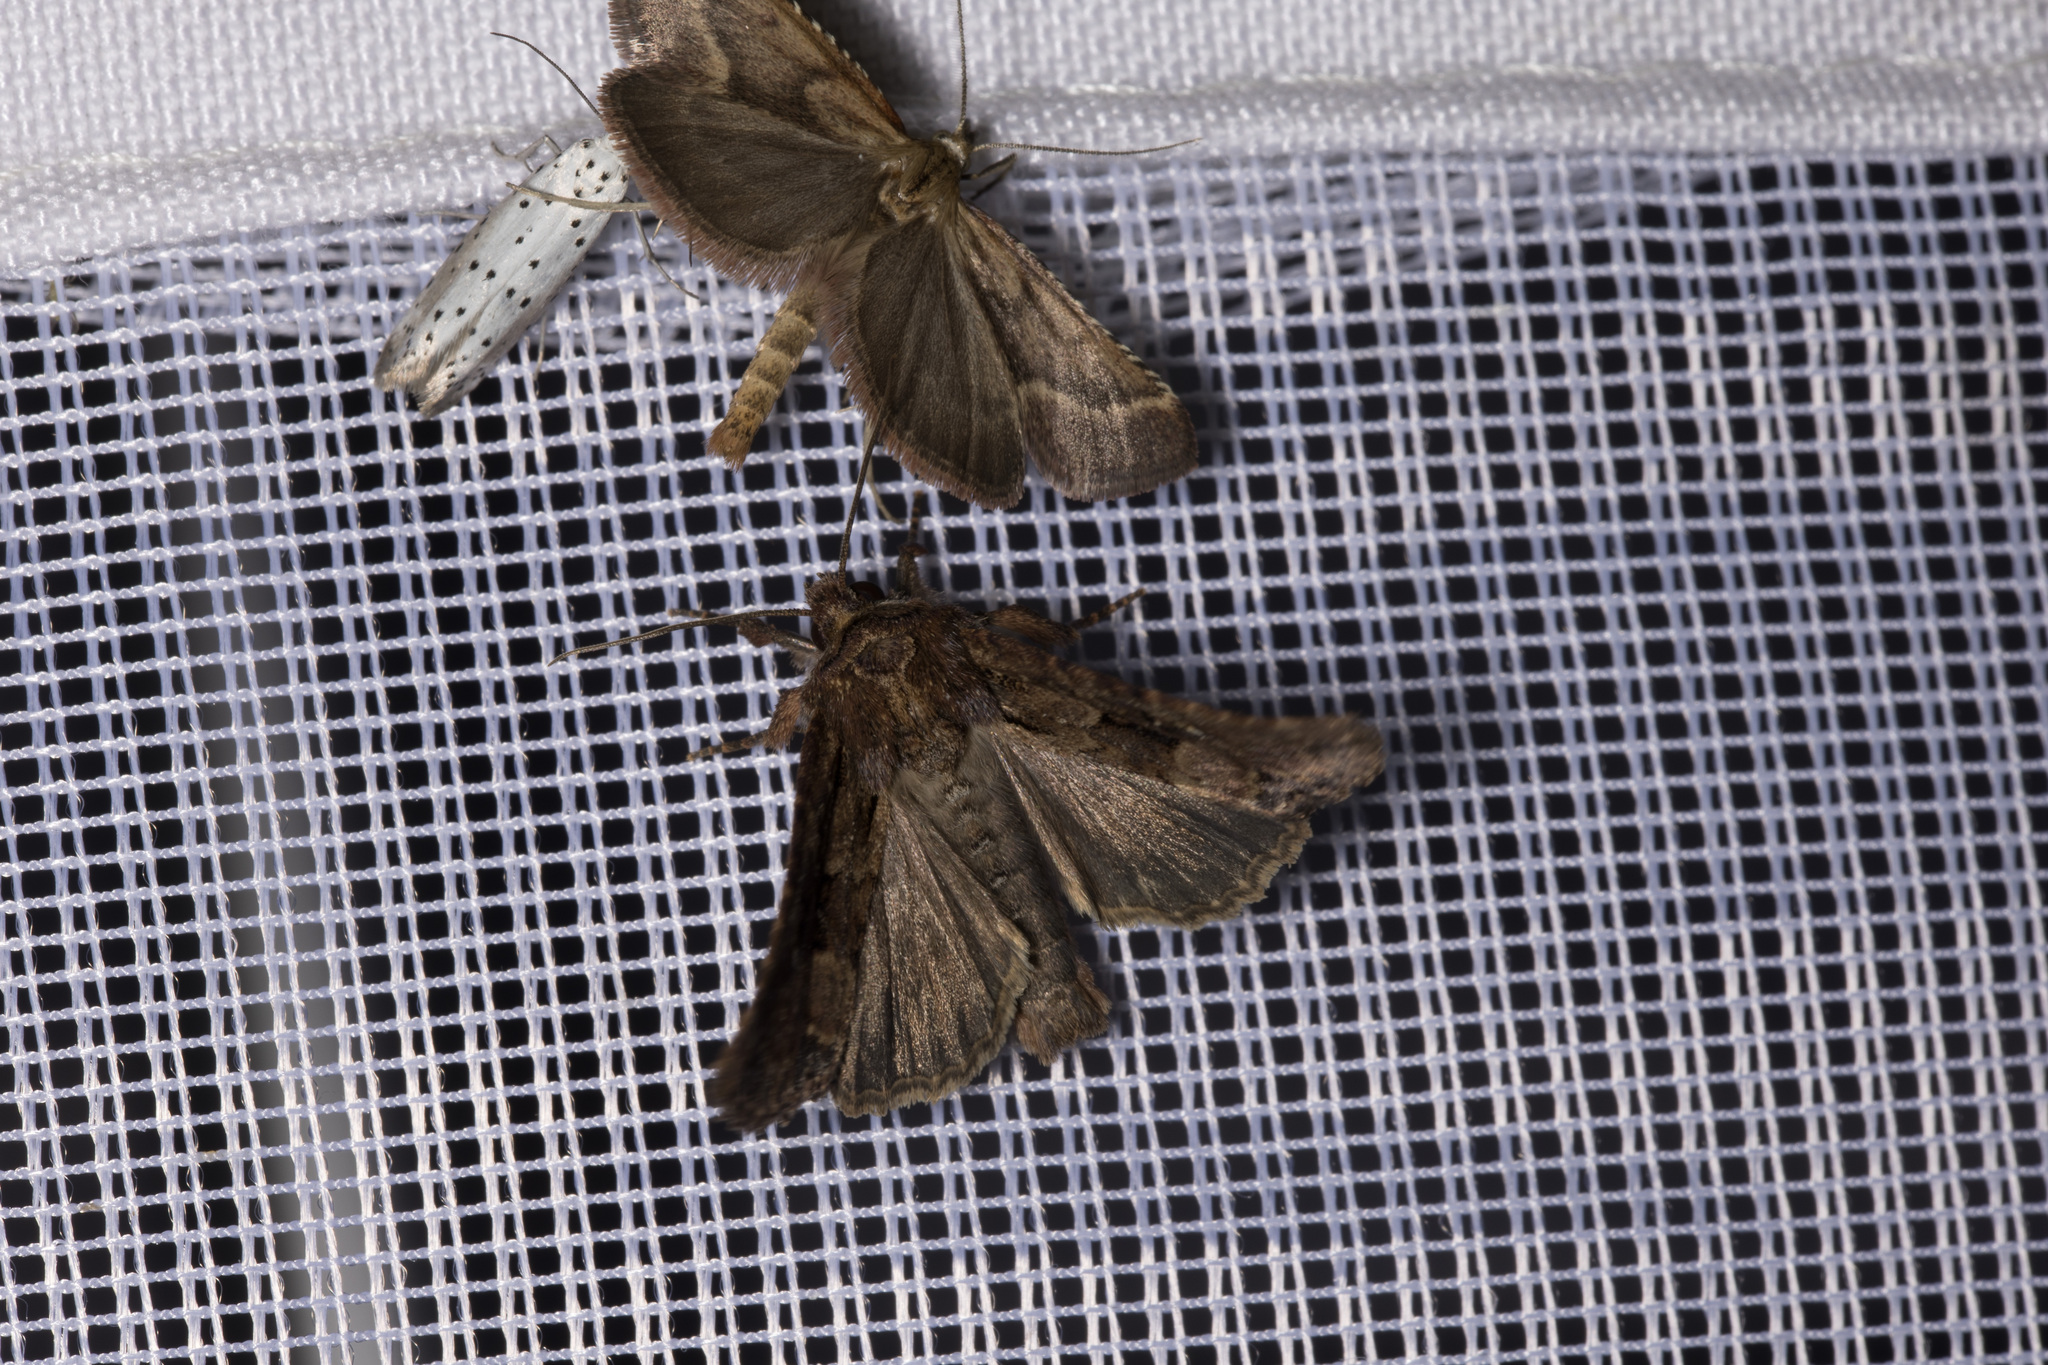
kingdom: Animalia
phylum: Arthropoda
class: Insecta
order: Lepidoptera
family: Pyralidae
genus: Synaphe
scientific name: Synaphe punctalis
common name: Long-legged tabby
